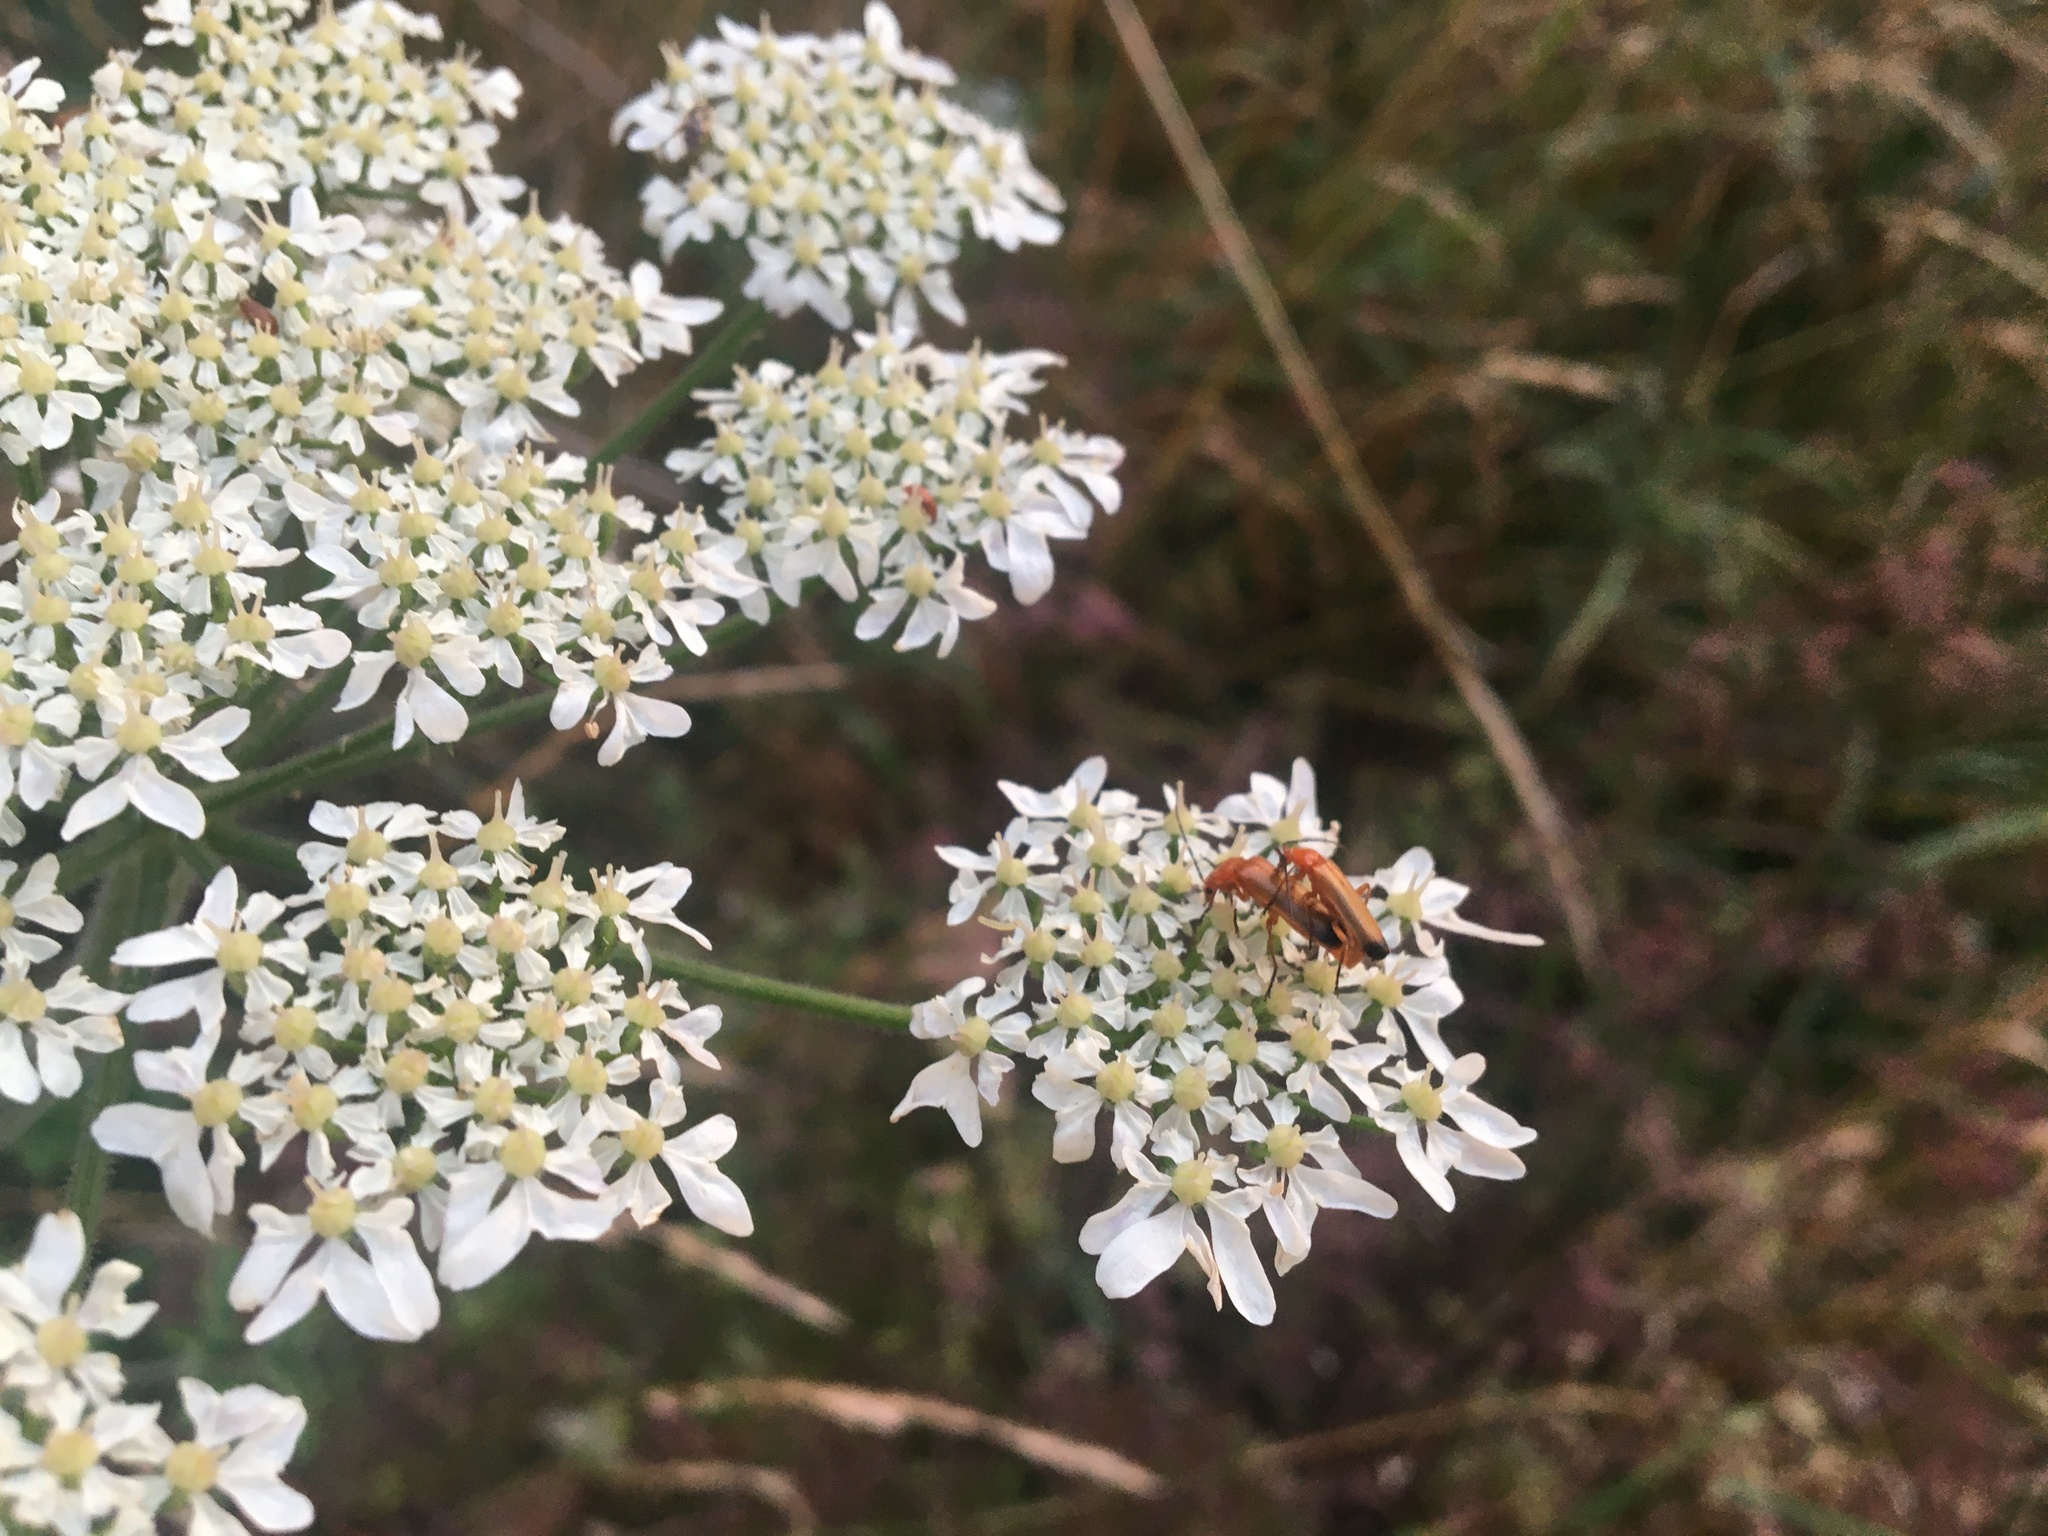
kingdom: Animalia
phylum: Arthropoda
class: Insecta
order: Coleoptera
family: Cantharidae
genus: Rhagonycha
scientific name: Rhagonycha fulva
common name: Common red soldier beetle
